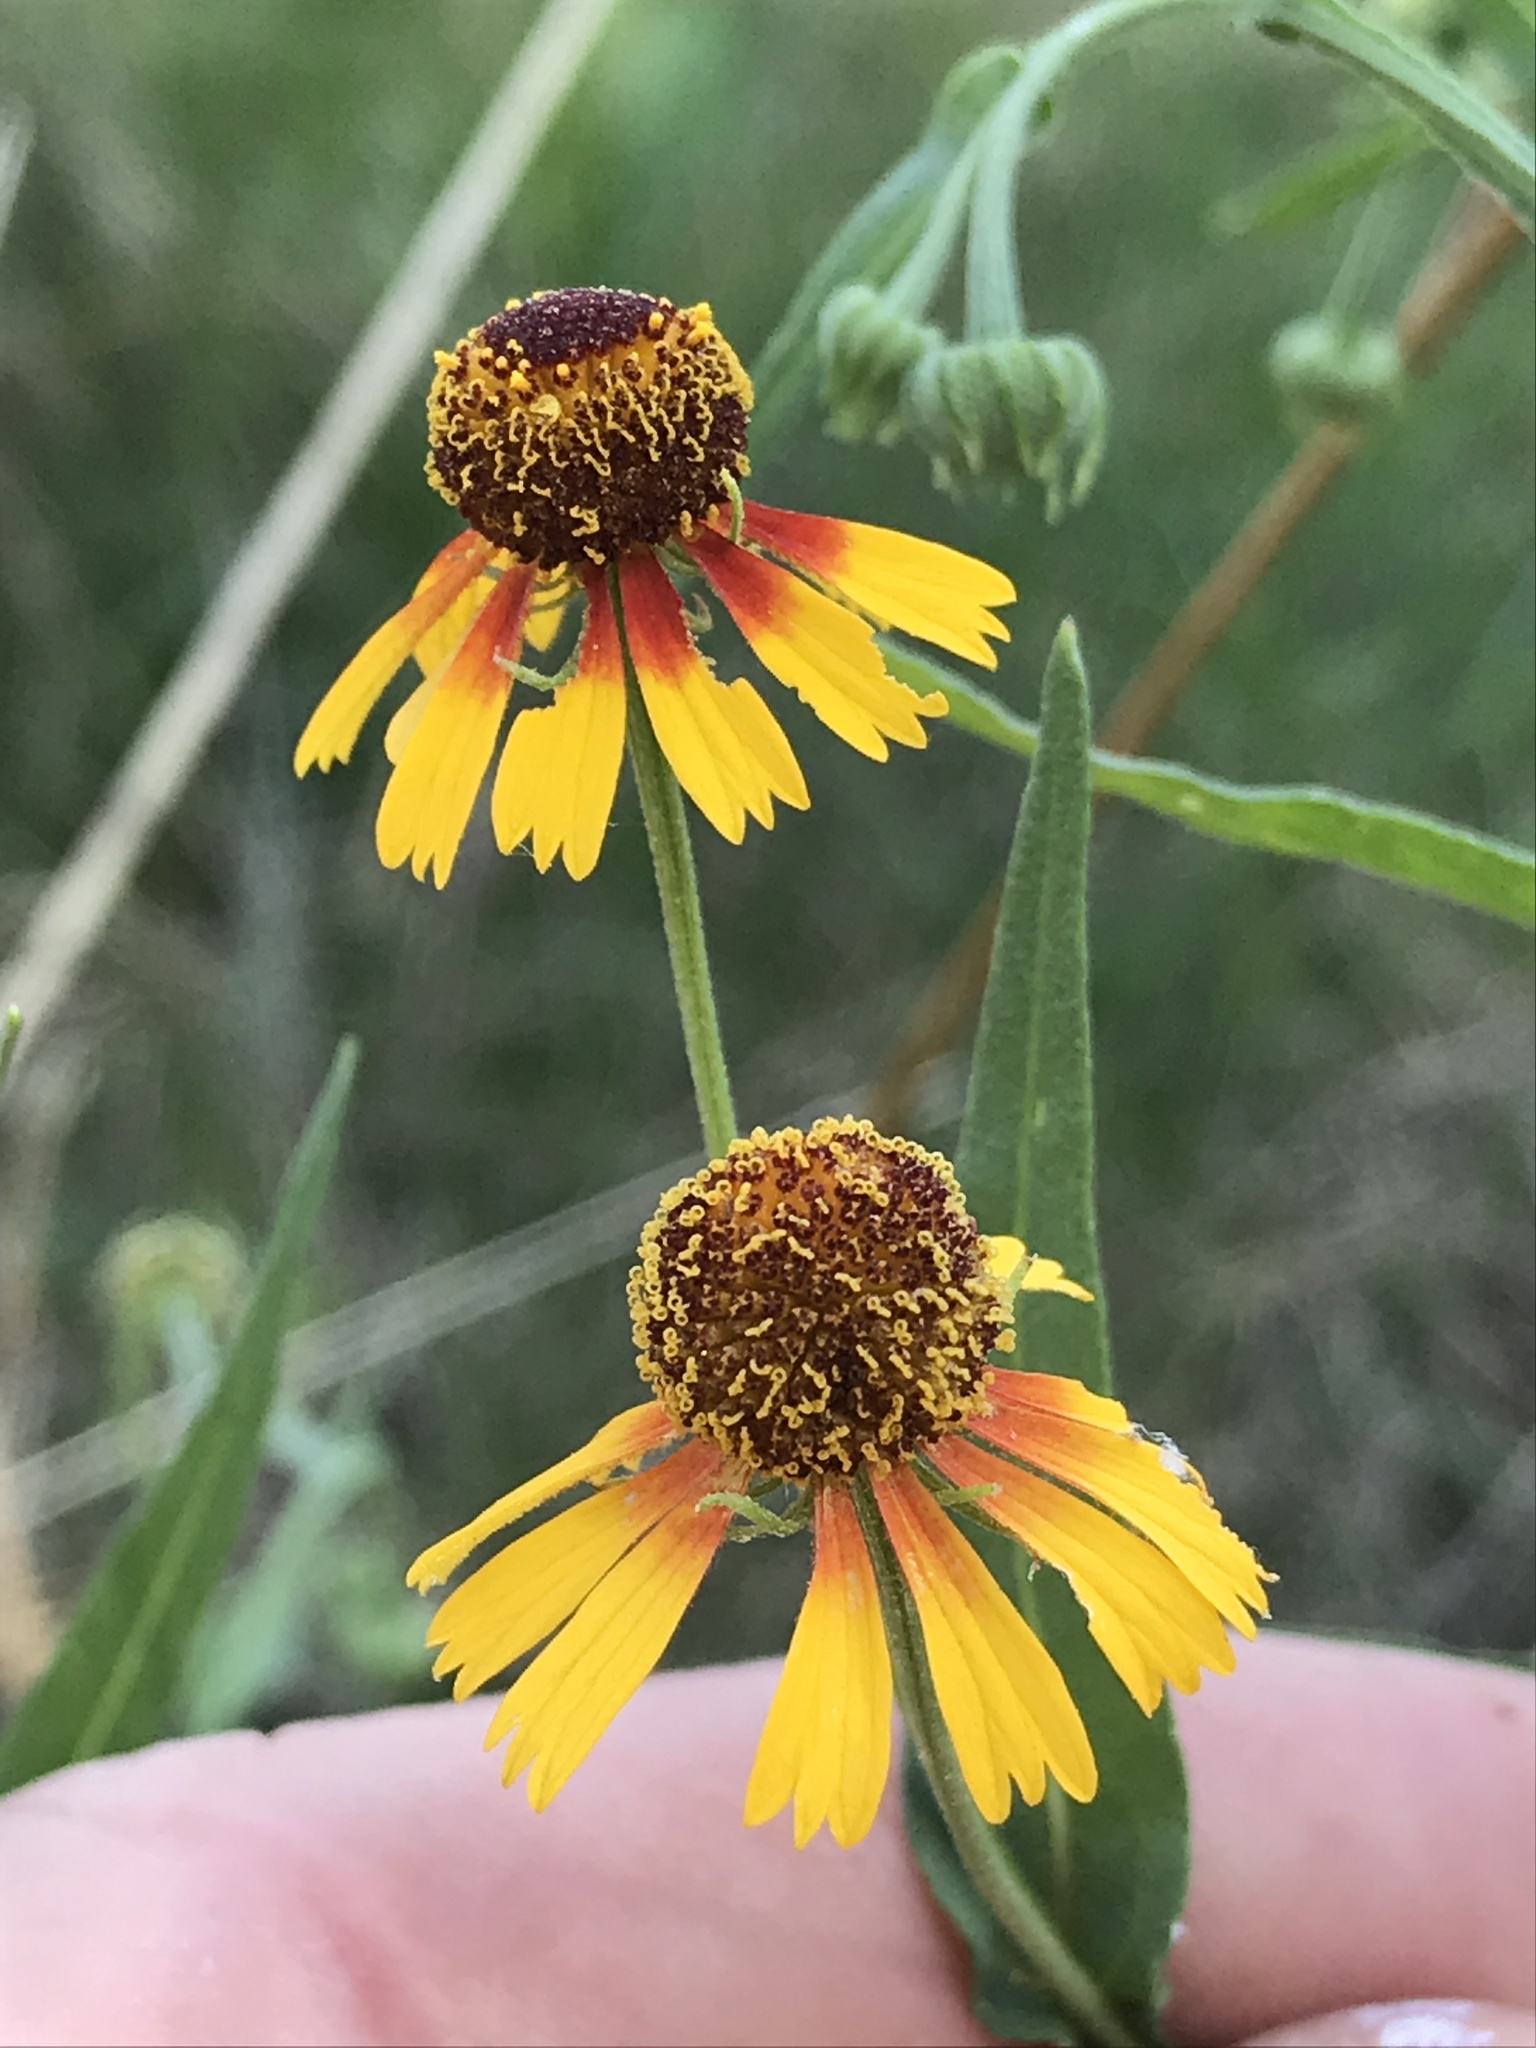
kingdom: Plantae
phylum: Tracheophyta
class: Magnoliopsida
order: Asterales
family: Asteraceae
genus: Helenium
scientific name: Helenium elegans
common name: Pretty sneezeweed
